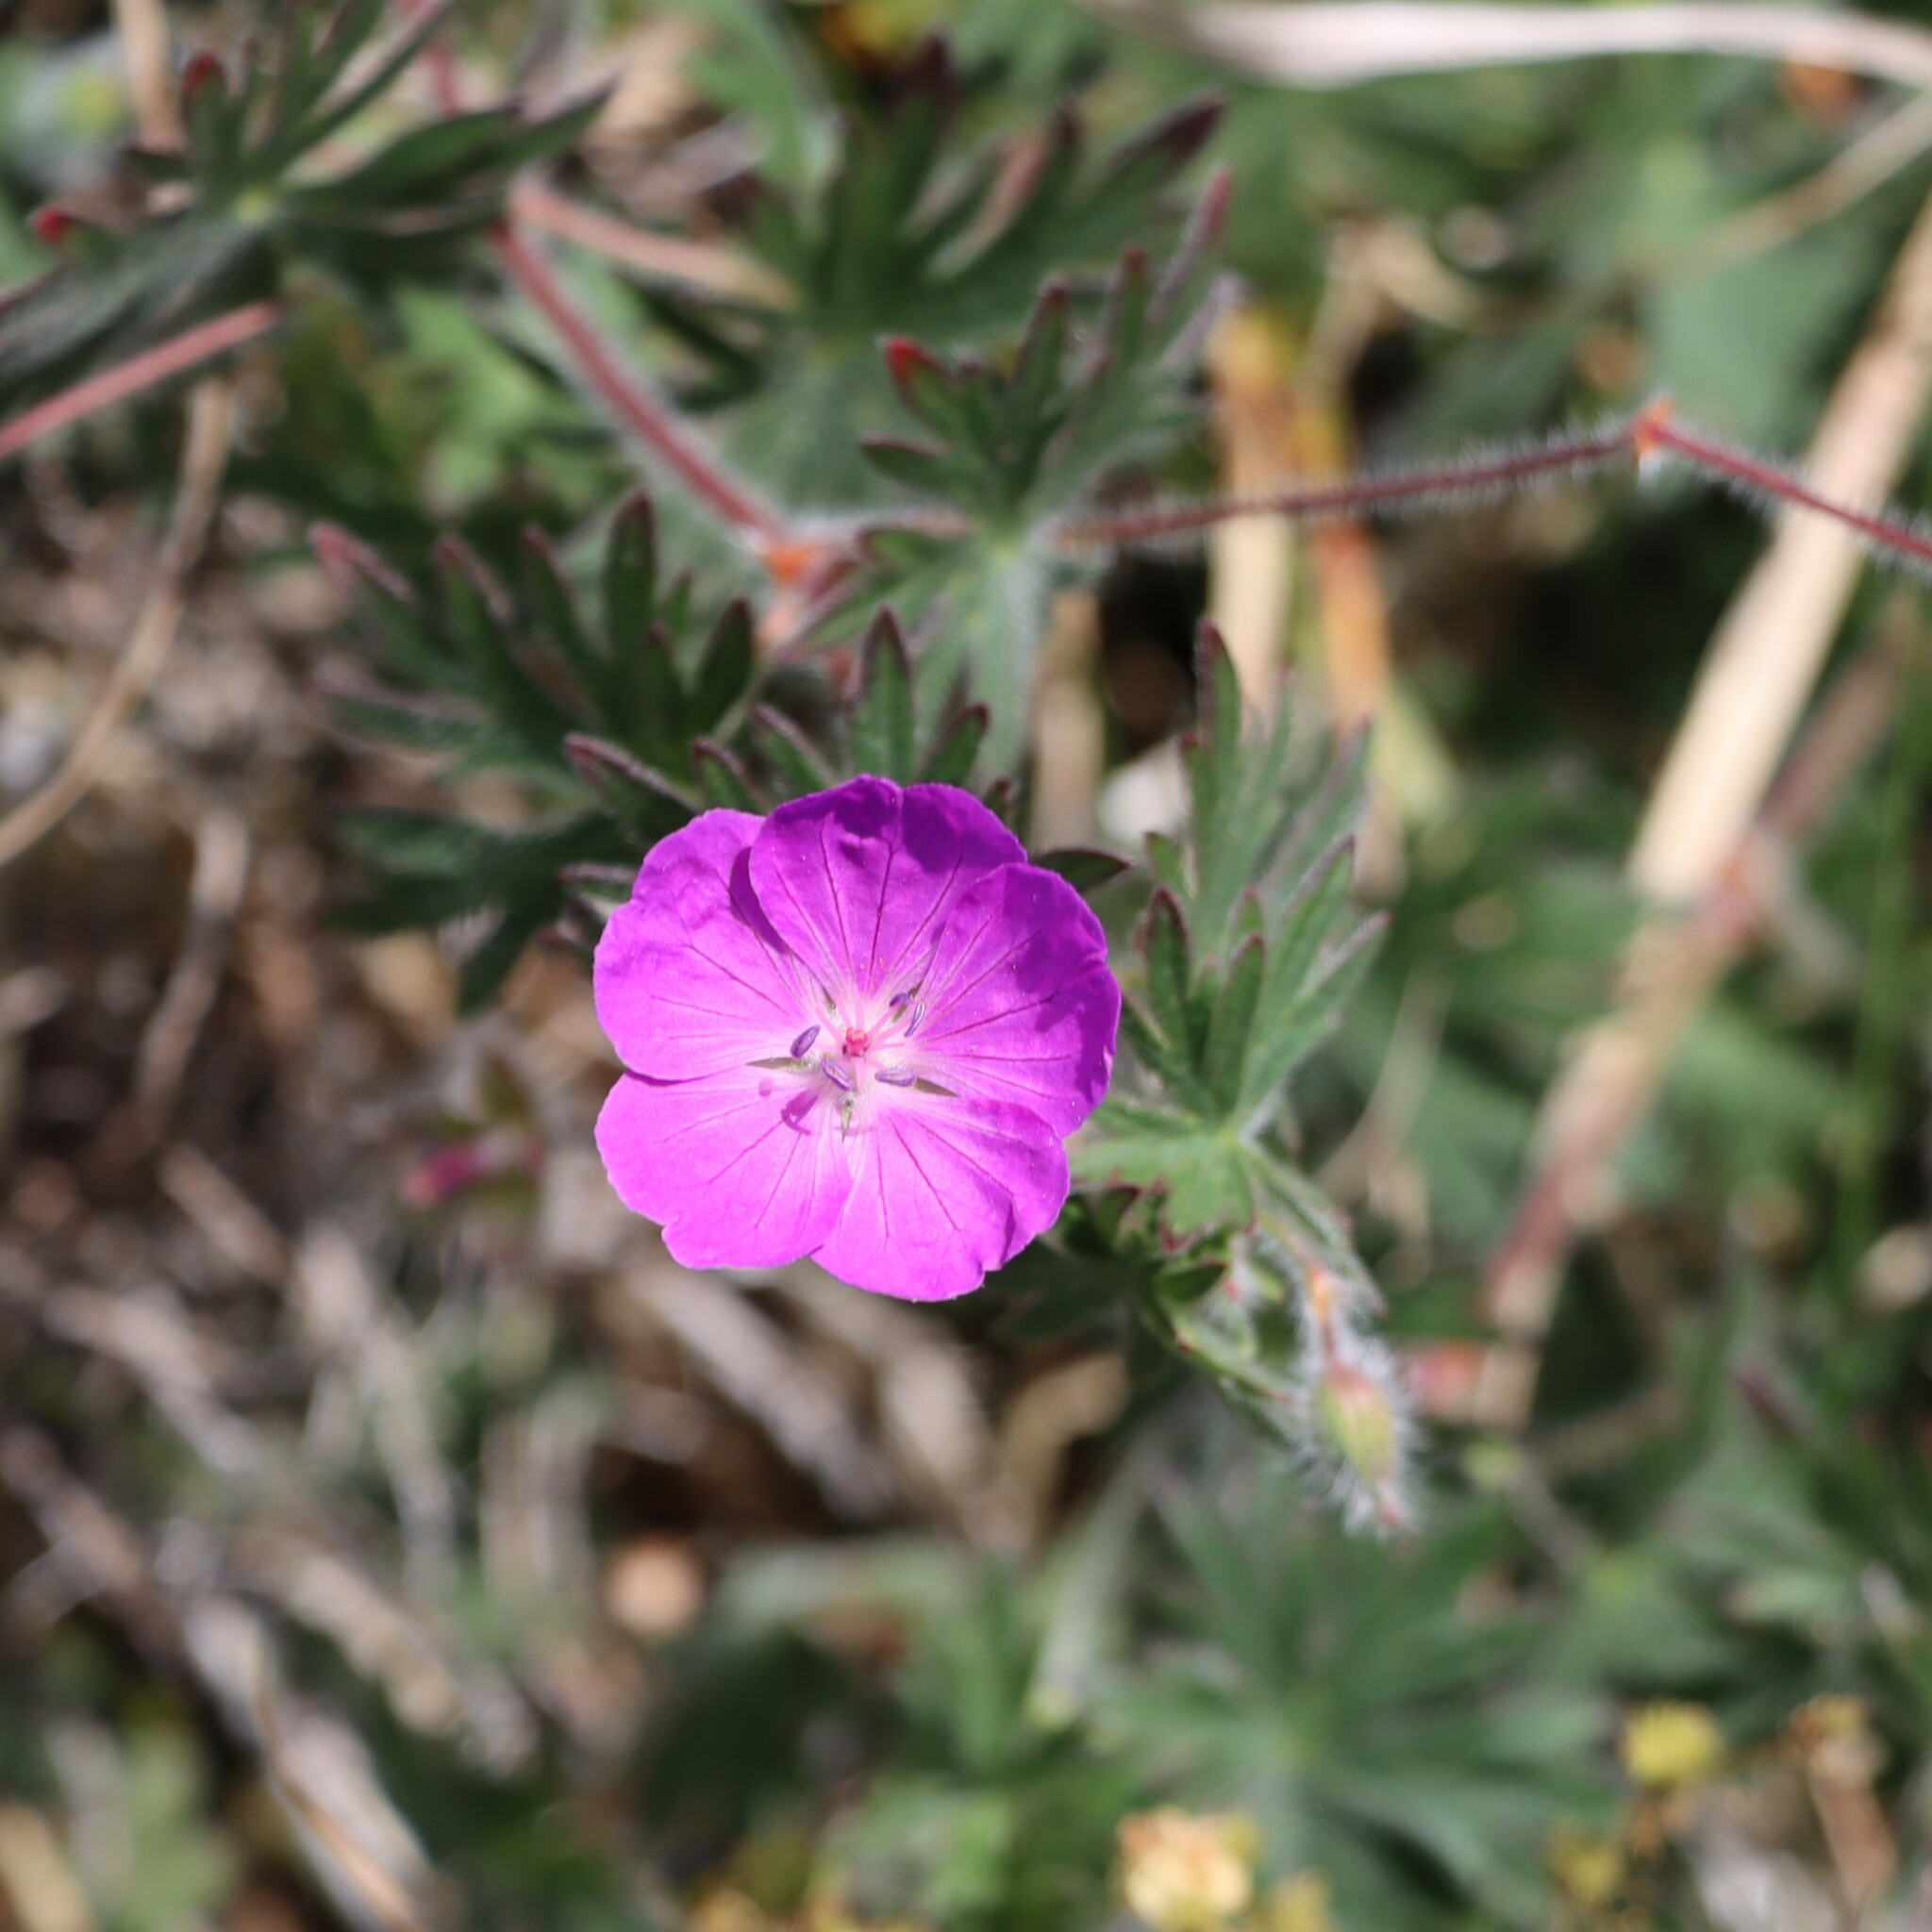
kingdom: Plantae
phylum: Tracheophyta
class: Magnoliopsida
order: Geraniales
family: Geraniaceae
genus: Geranium
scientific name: Geranium sanguineum
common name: Bloody crane's-bill
